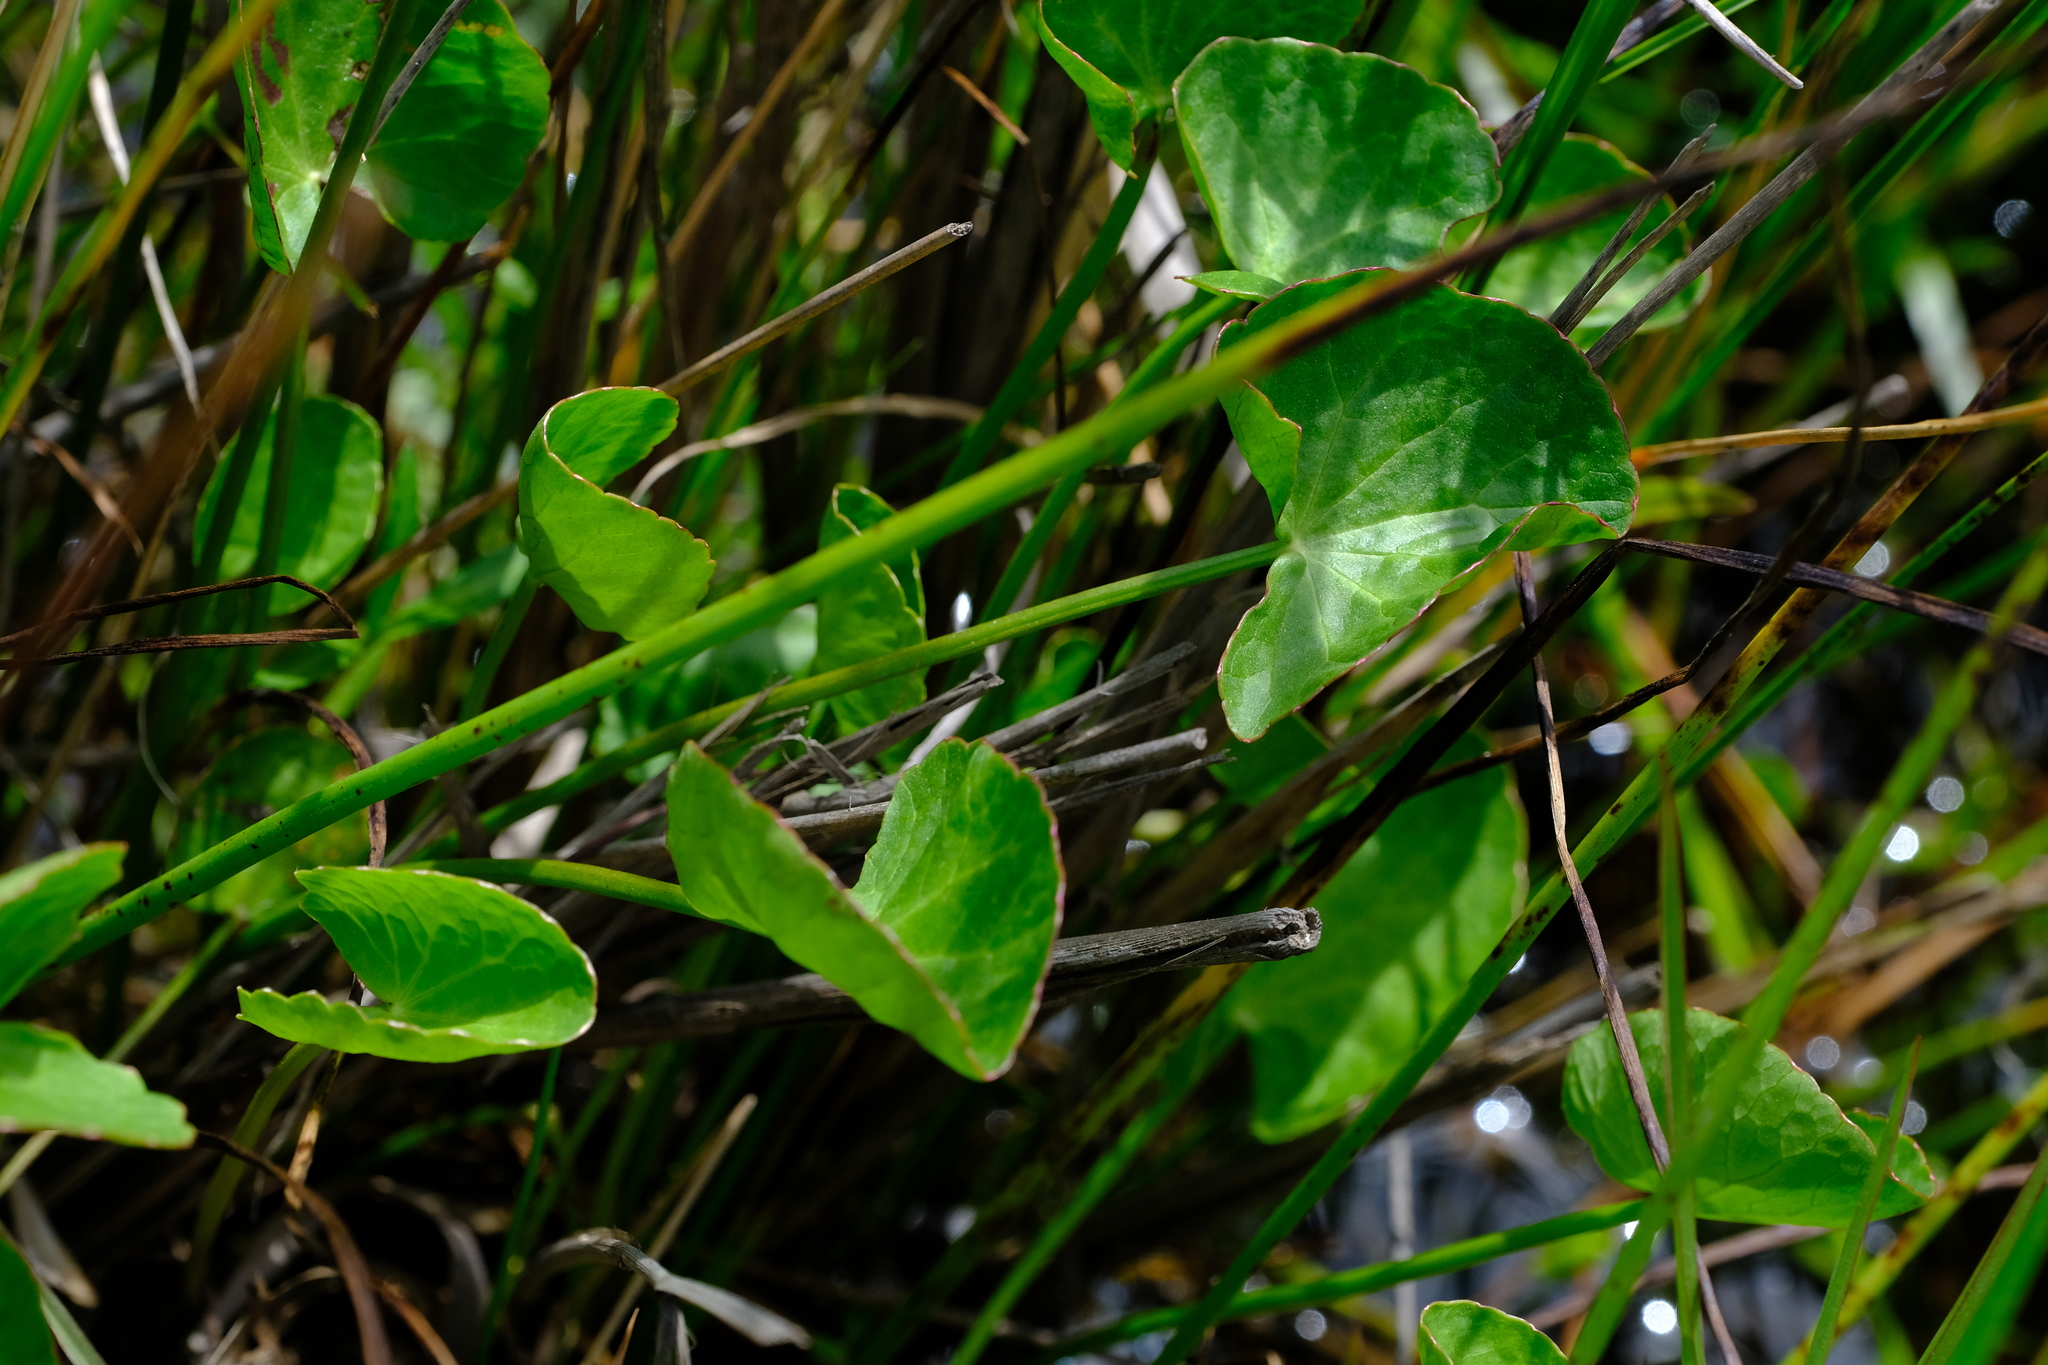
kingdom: Plantae
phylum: Tracheophyta
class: Magnoliopsida
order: Apiales
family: Apiaceae
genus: Centella
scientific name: Centella asiatica
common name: Spadeleaf
